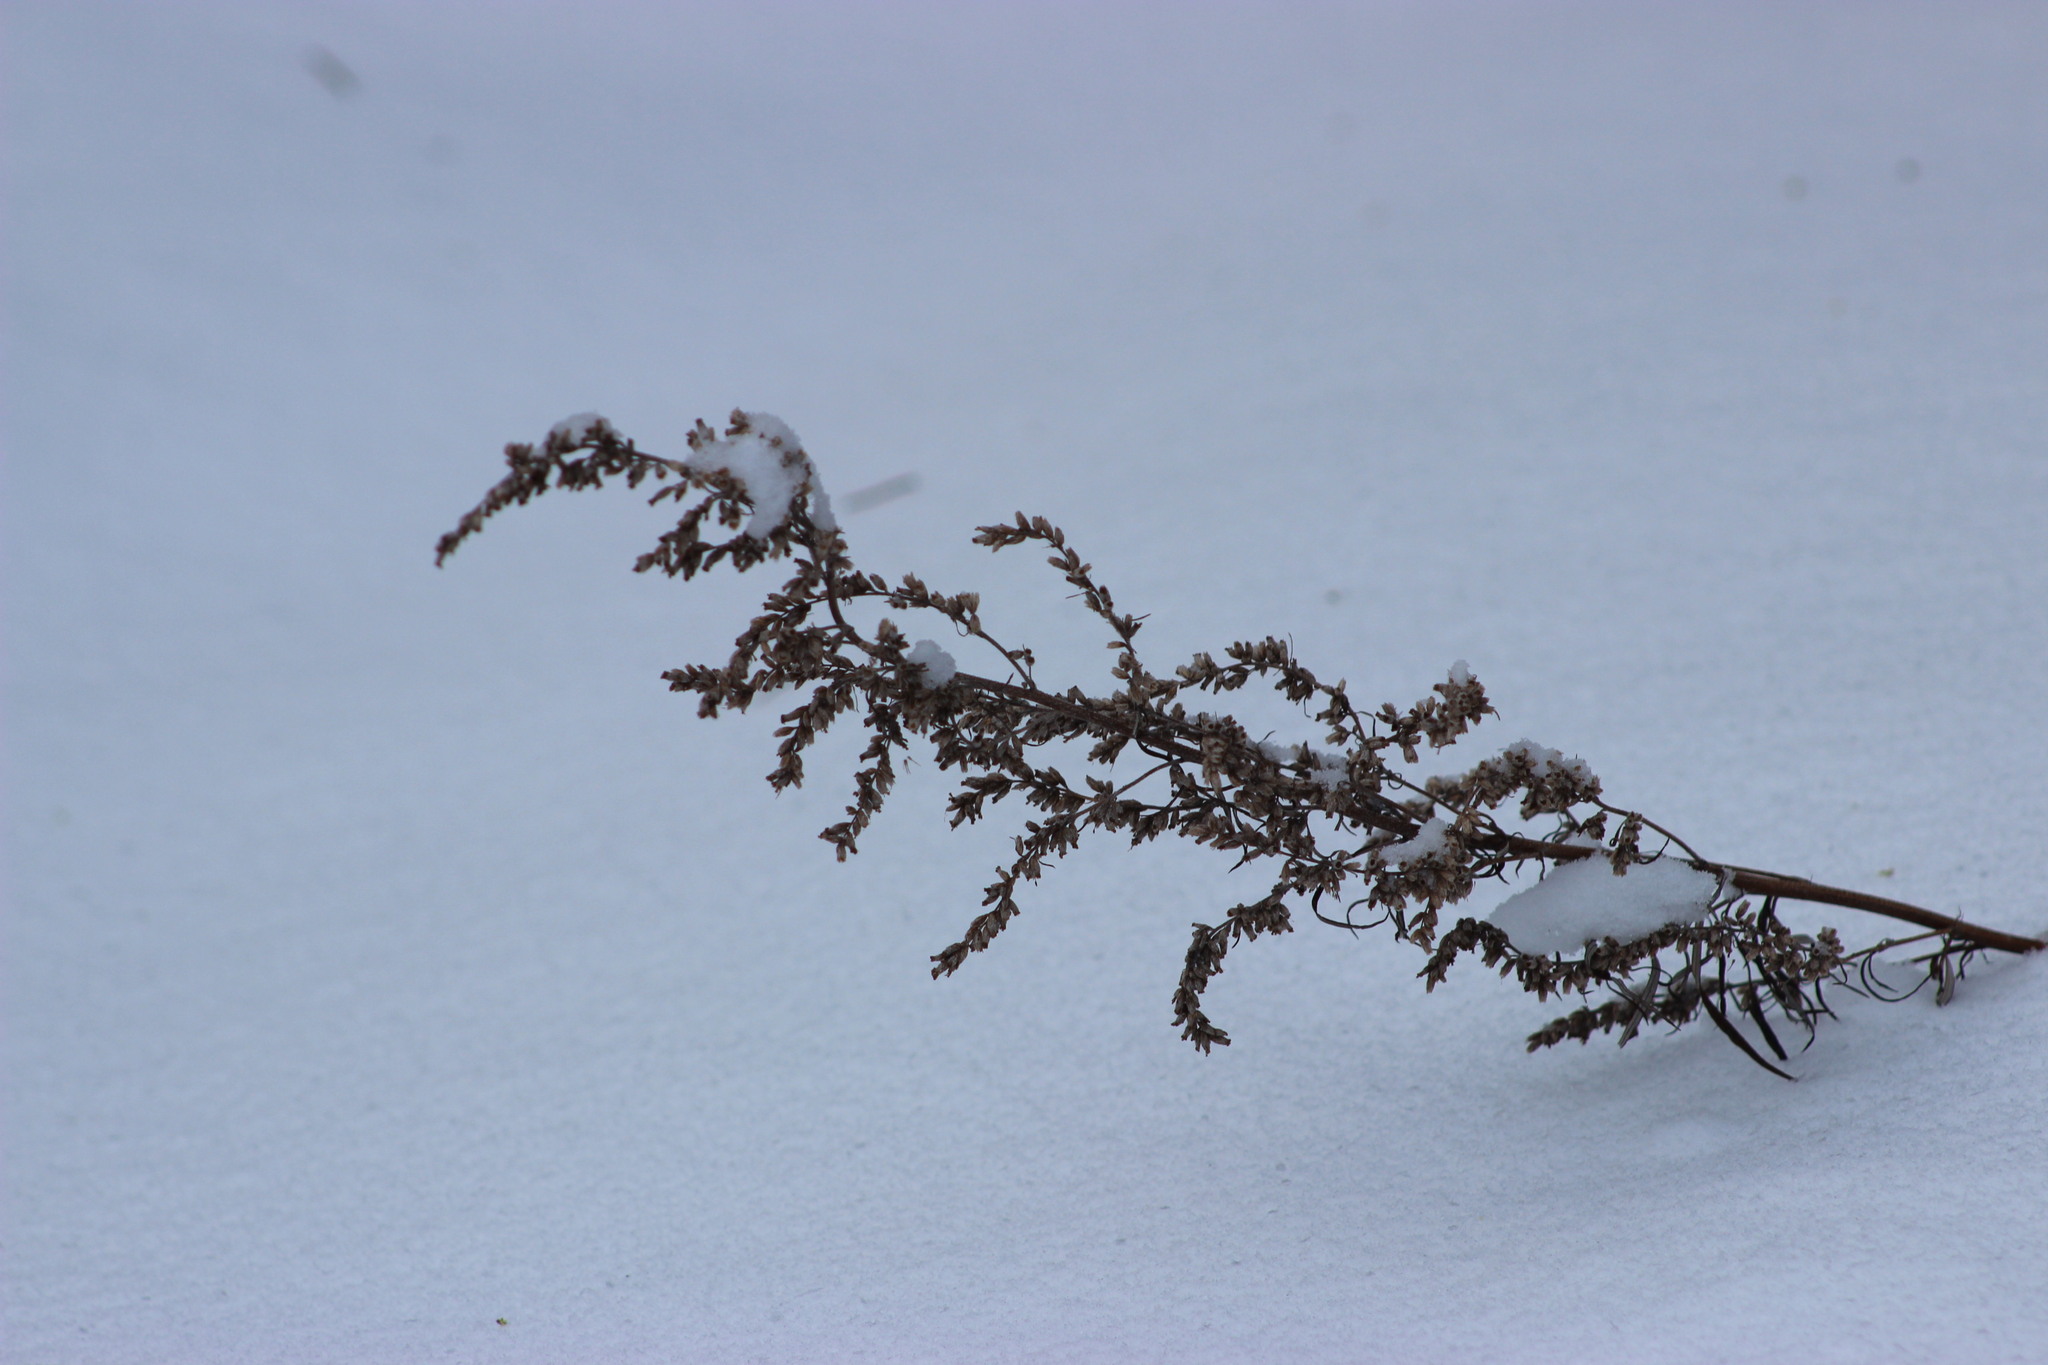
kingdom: Plantae
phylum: Tracheophyta
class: Magnoliopsida
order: Asterales
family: Asteraceae
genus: Artemisia
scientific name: Artemisia vulgaris
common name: Mugwort
